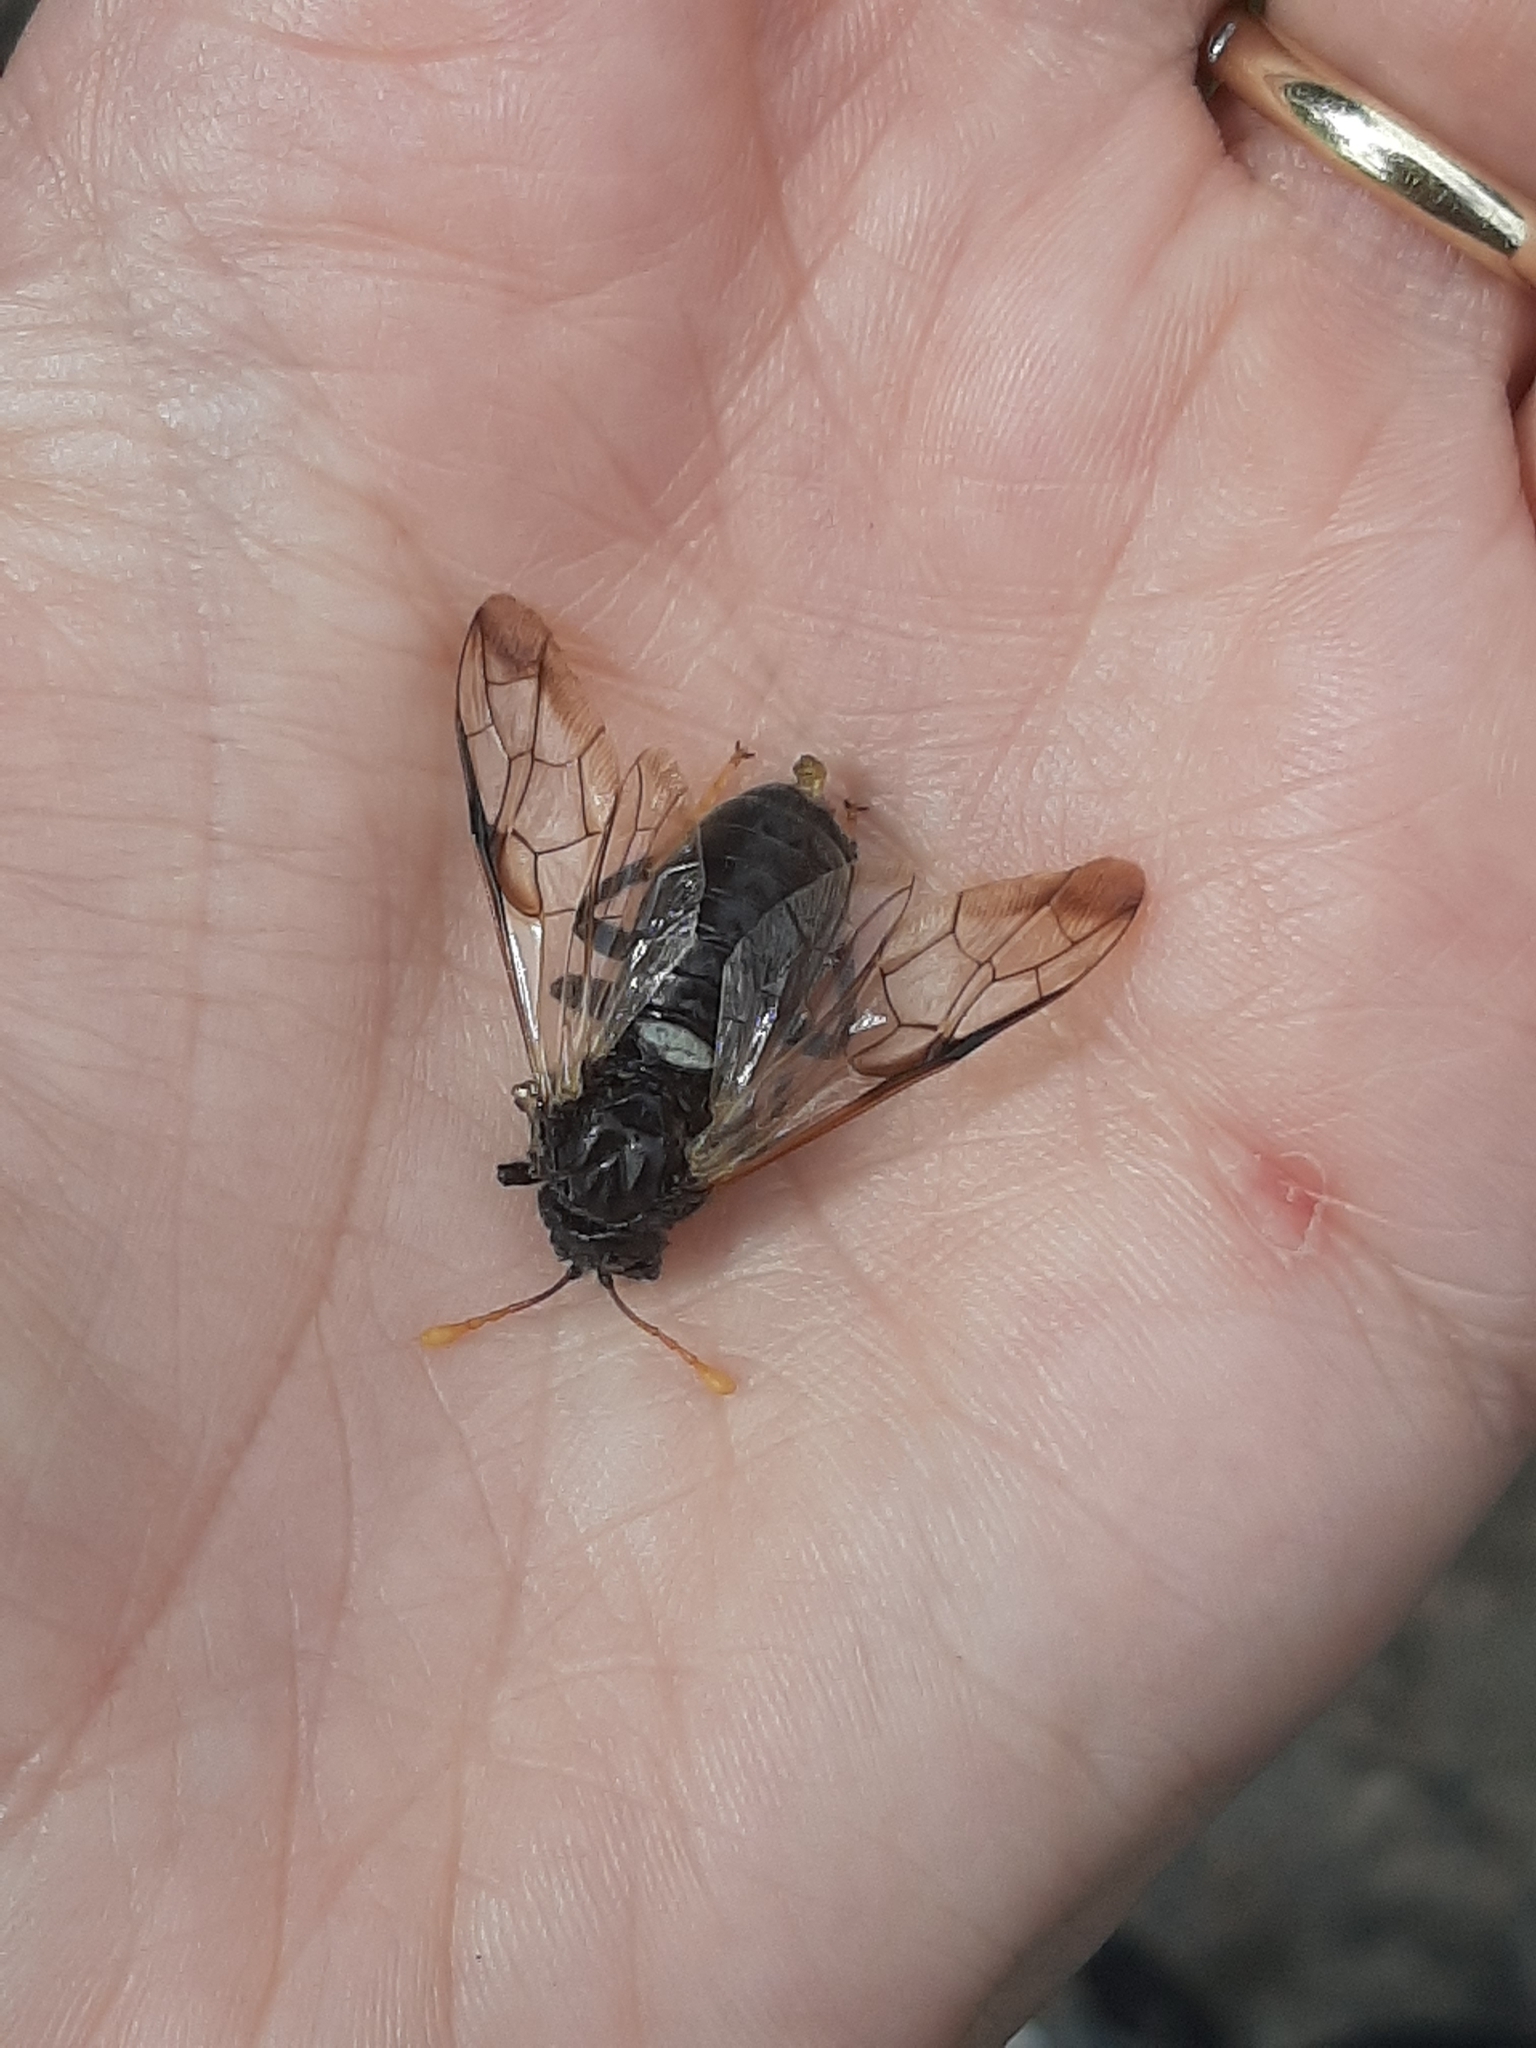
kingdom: Animalia
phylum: Arthropoda
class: Insecta
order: Hymenoptera
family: Cimbicidae
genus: Cimbex
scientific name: Cimbex femoratus
